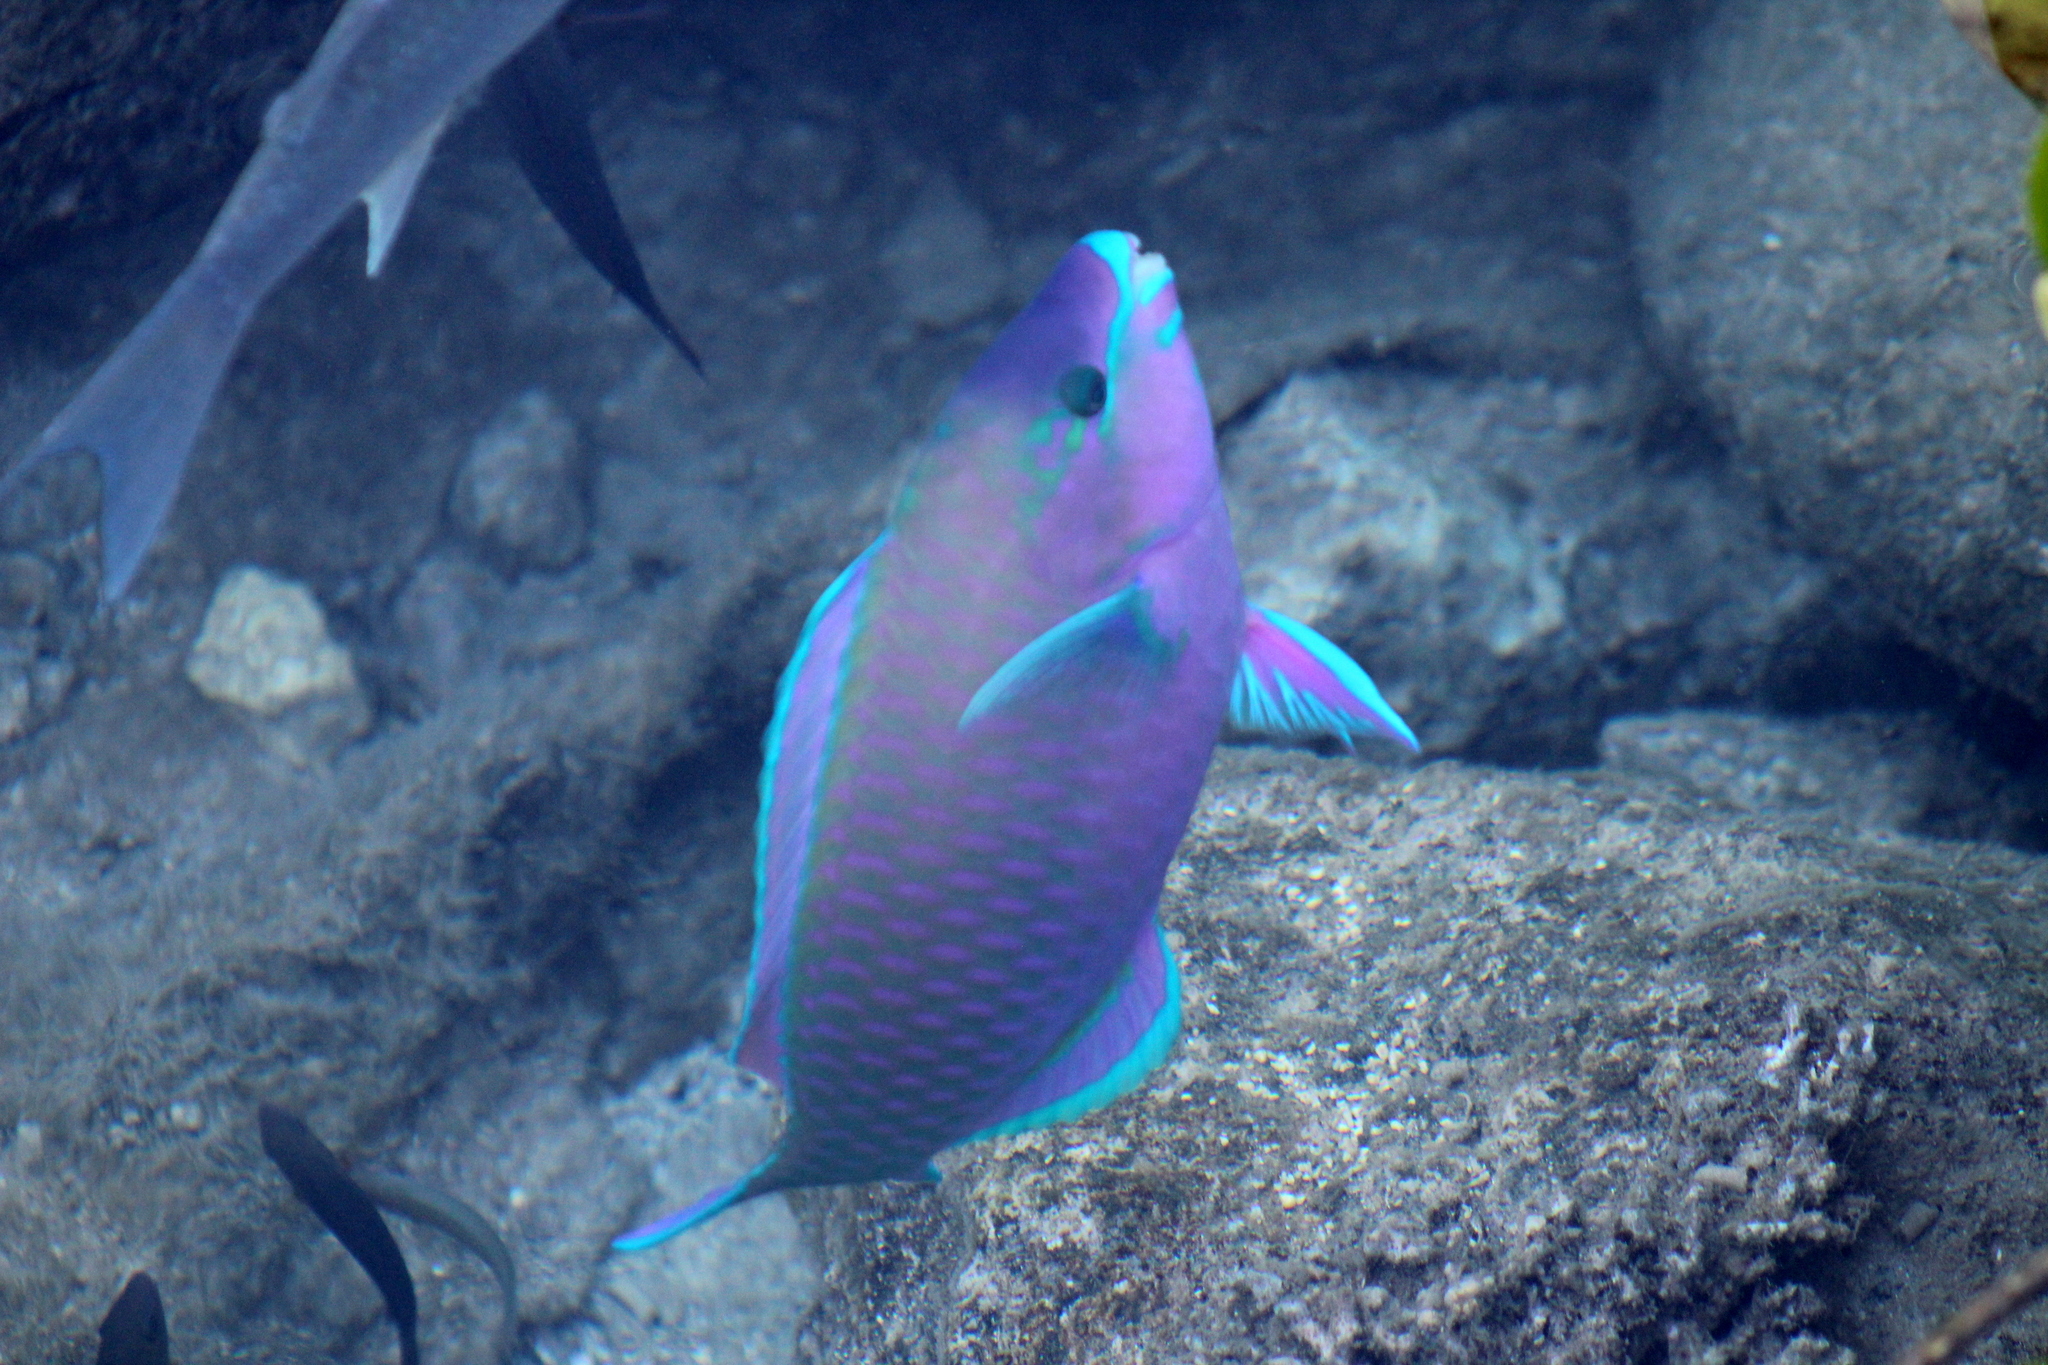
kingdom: Animalia
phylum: Chordata
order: Perciformes
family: Scaridae
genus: Scarus
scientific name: Scarus psittacus
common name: Palenose parrotfish
